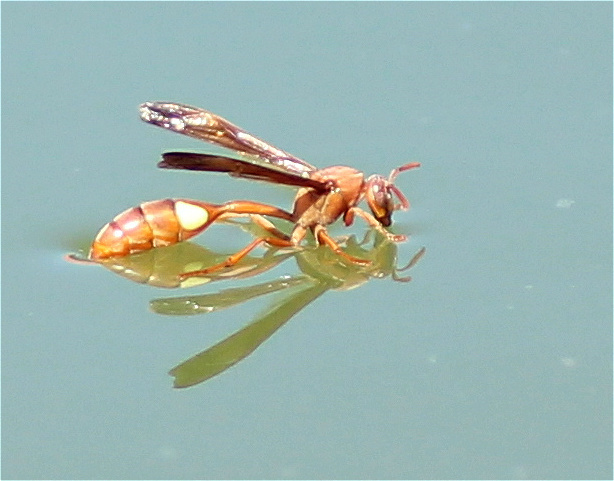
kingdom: Animalia
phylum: Arthropoda
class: Insecta
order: Hymenoptera
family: Eumenidae
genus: Belonogaster
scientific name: Belonogaster lateritius
